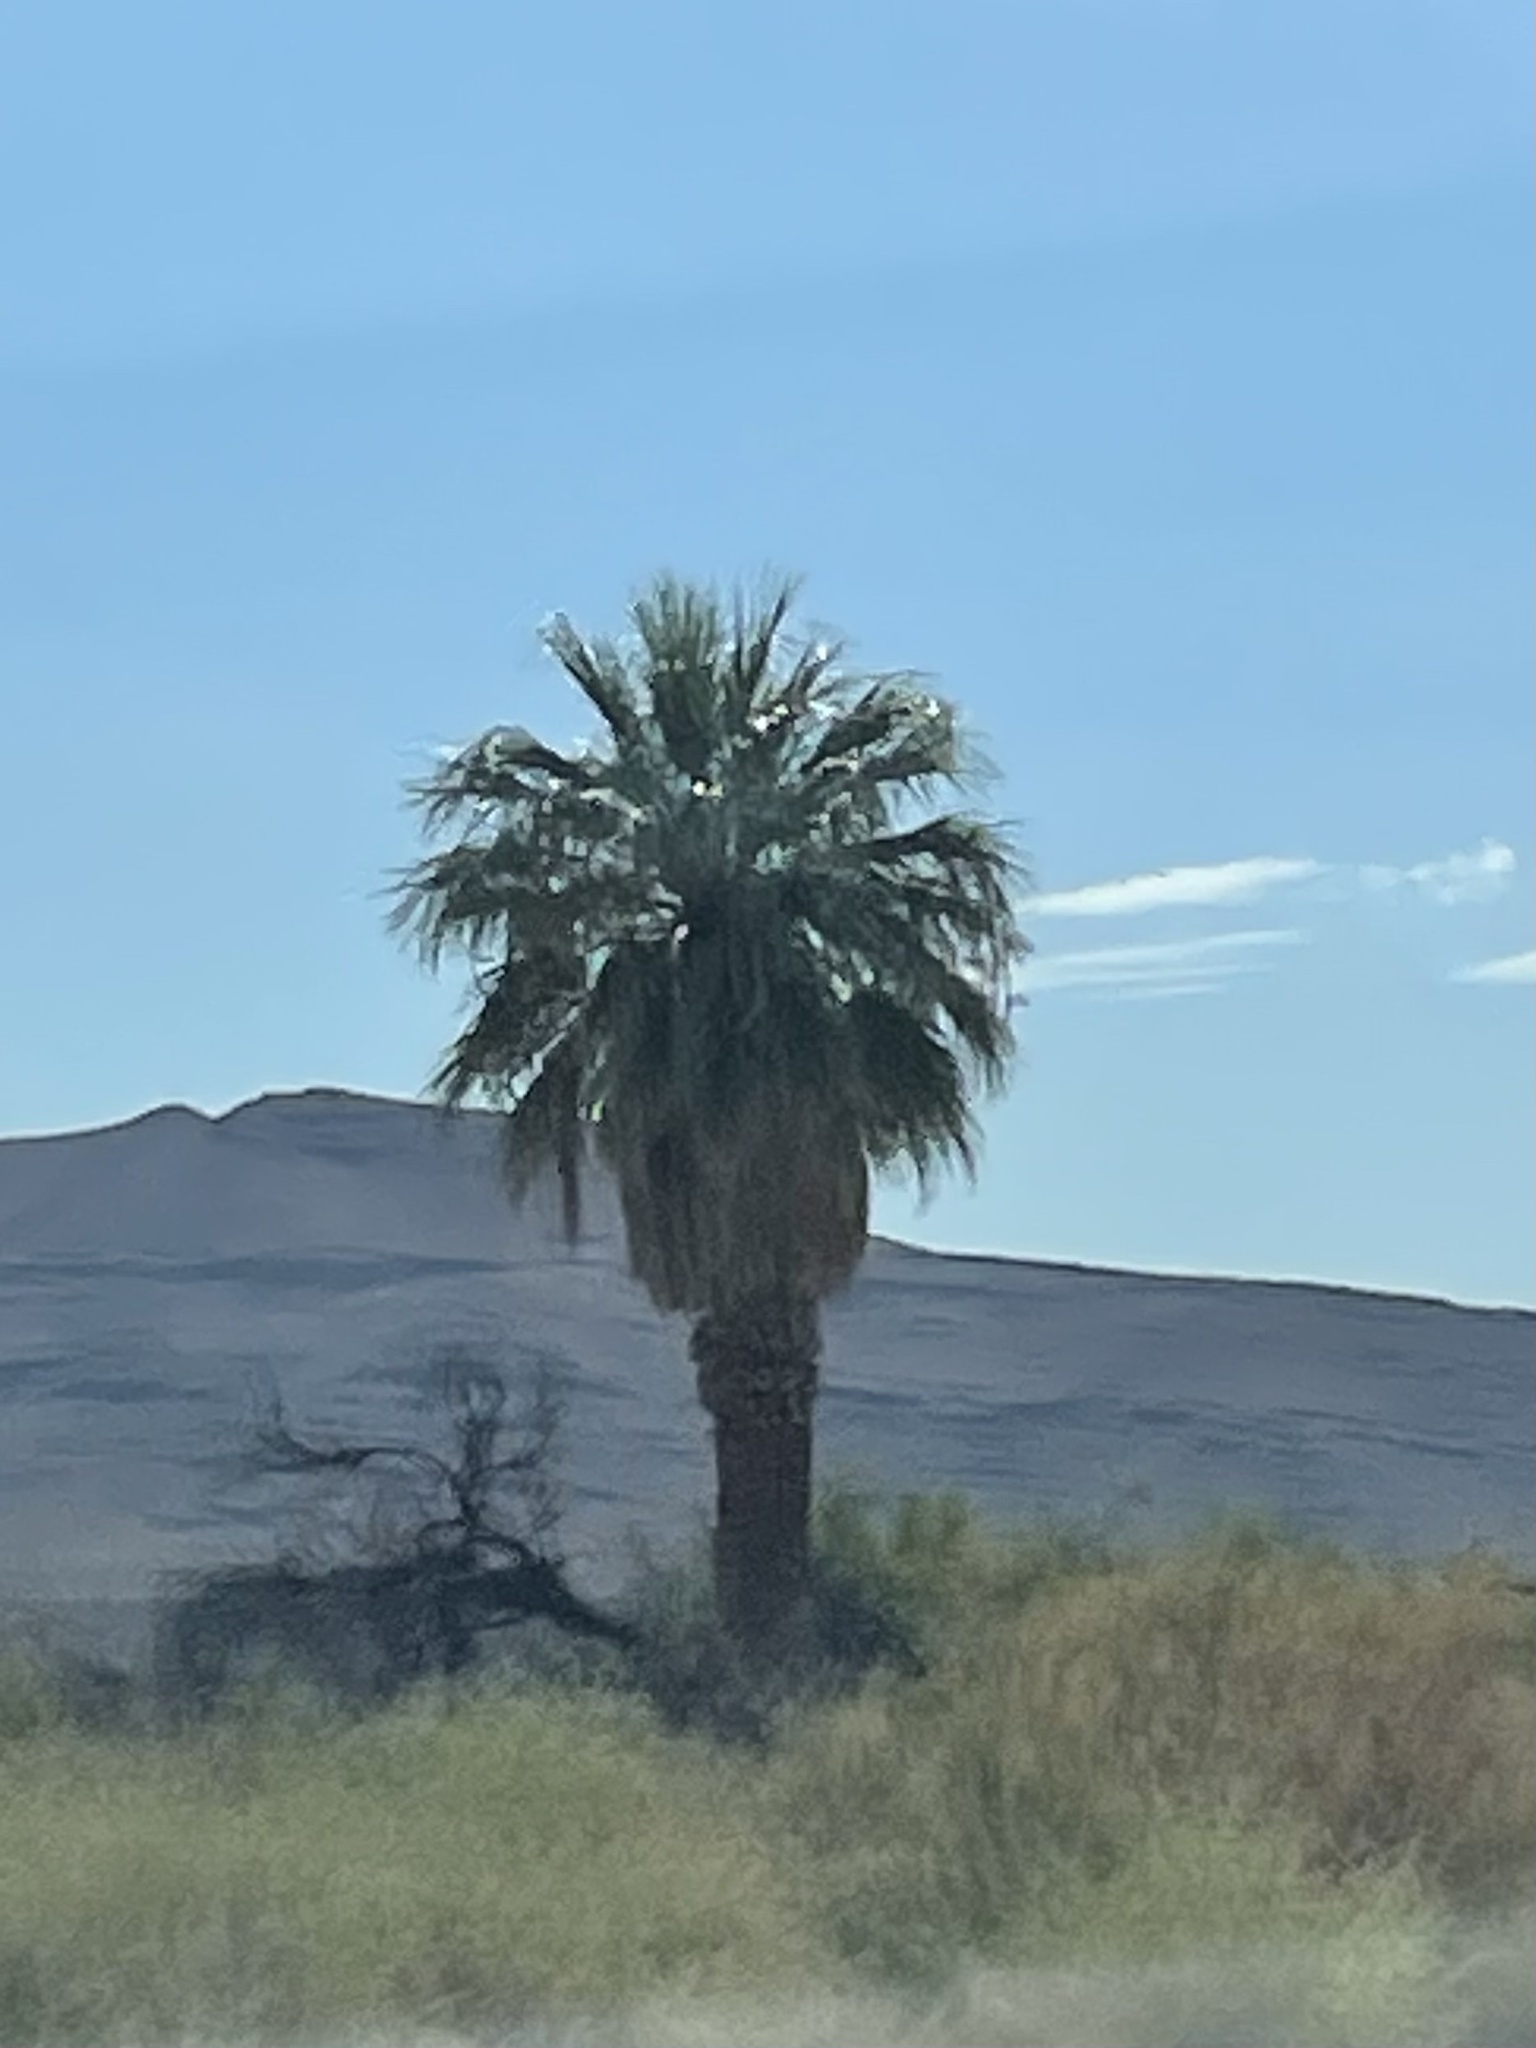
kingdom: Plantae
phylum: Tracheophyta
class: Liliopsida
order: Arecales
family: Arecaceae
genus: Washingtonia
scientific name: Washingtonia filifera
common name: California fan palm
